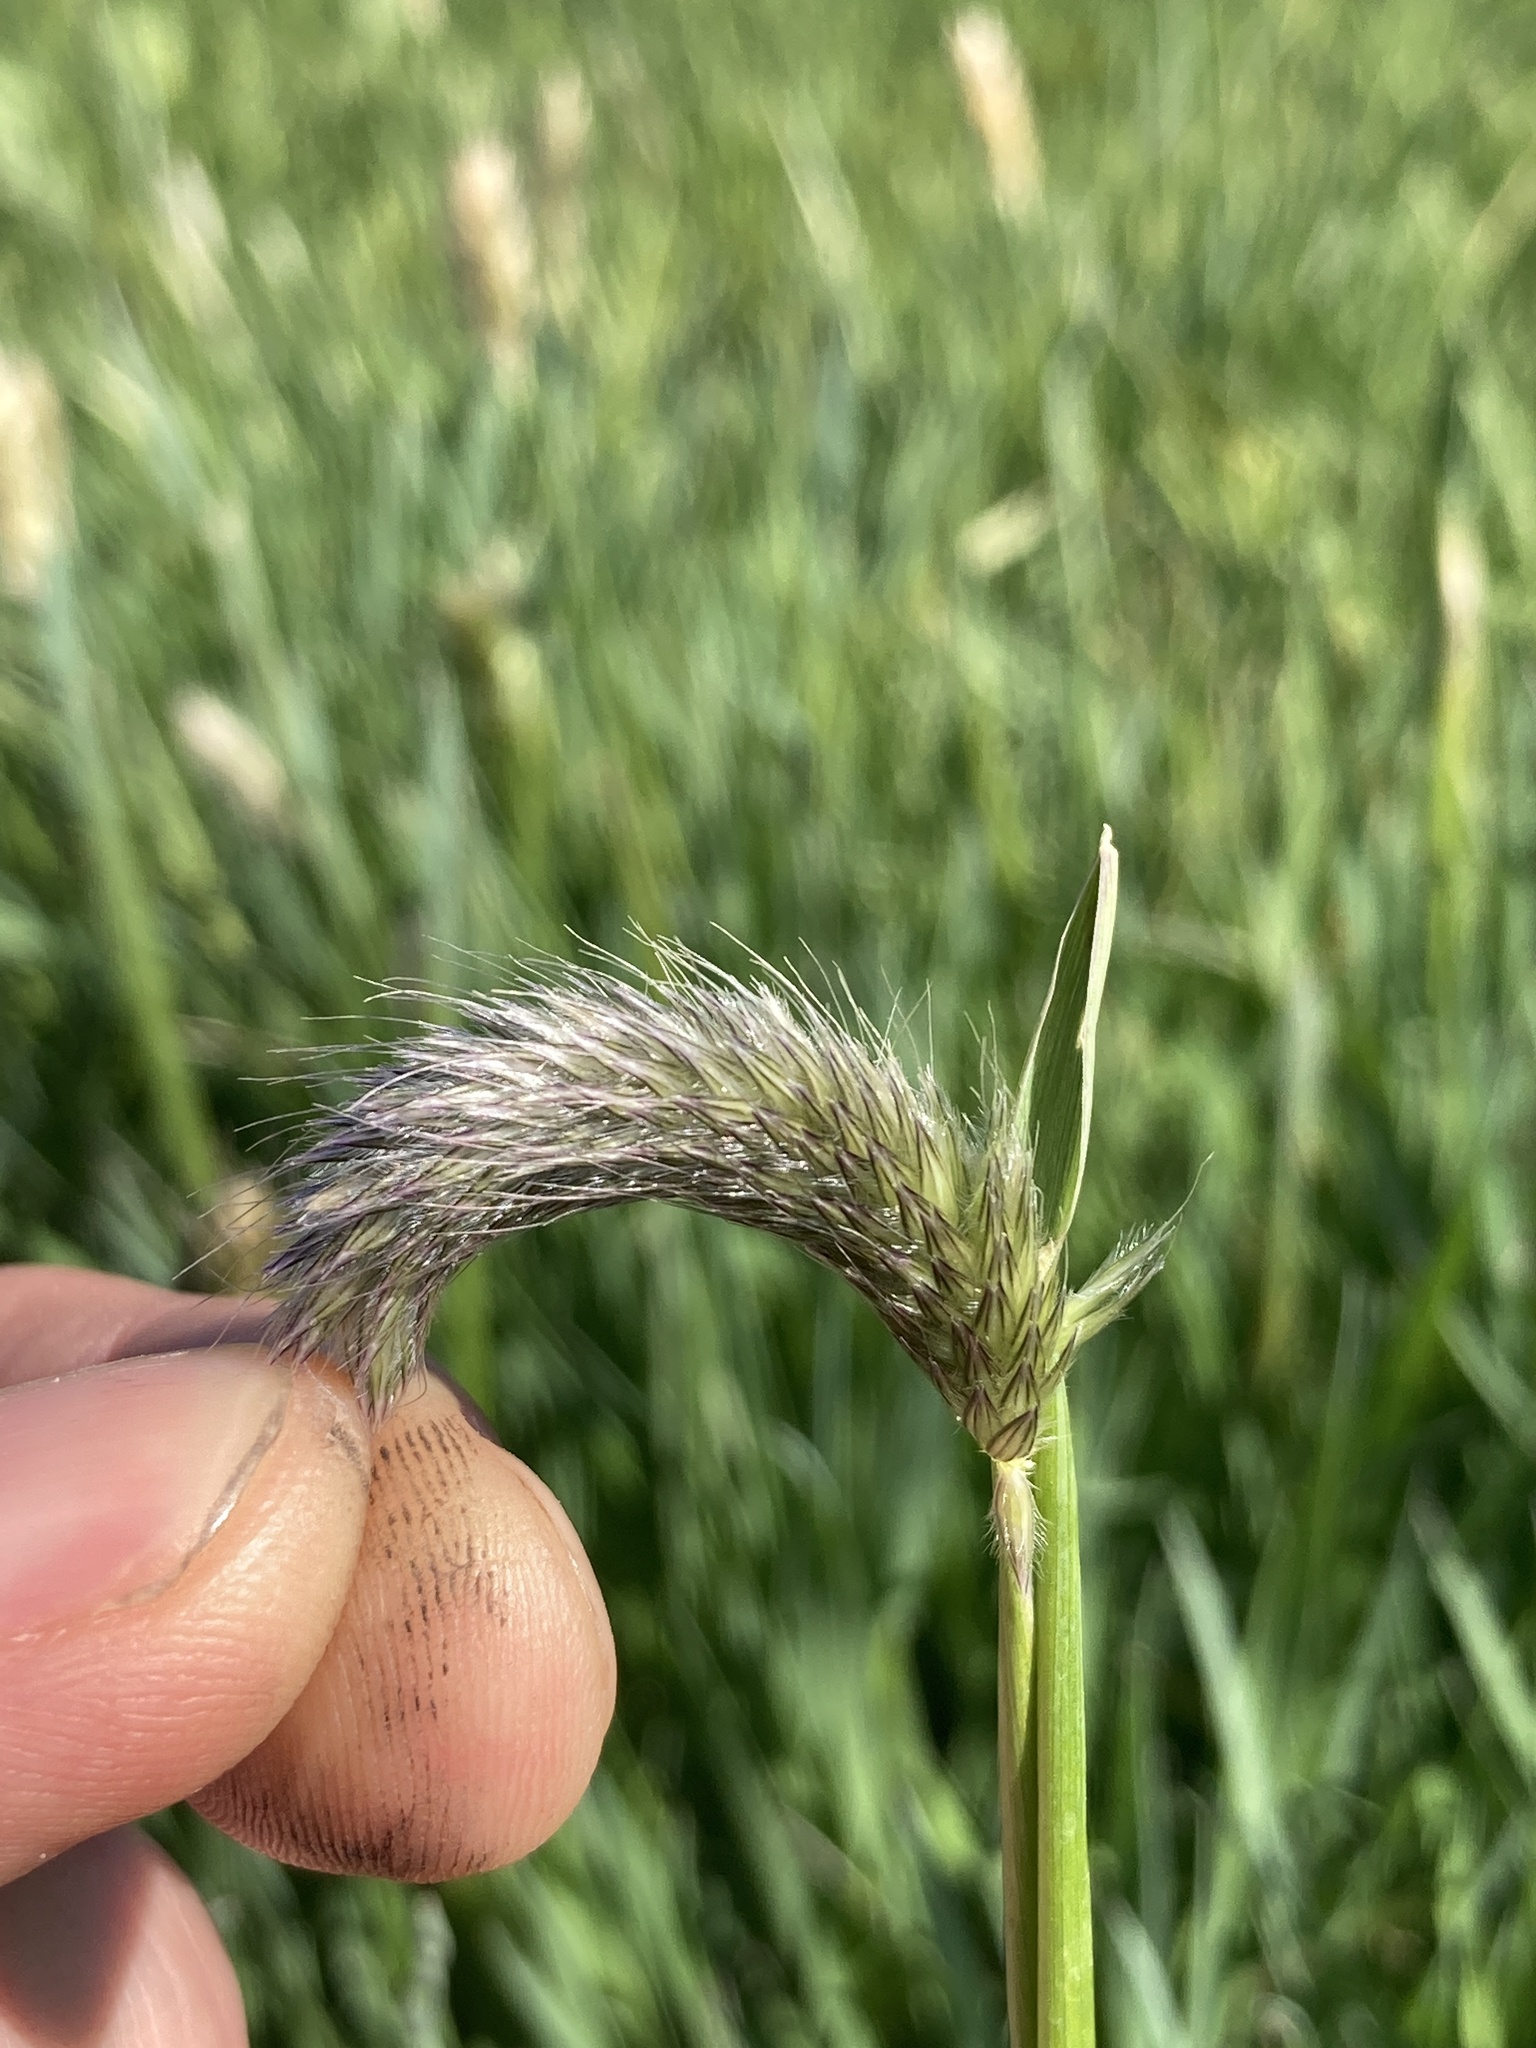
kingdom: Plantae
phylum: Tracheophyta
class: Liliopsida
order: Poales
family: Poaceae
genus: Alopecurus
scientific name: Alopecurus pratensis
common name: Meadow foxtail
